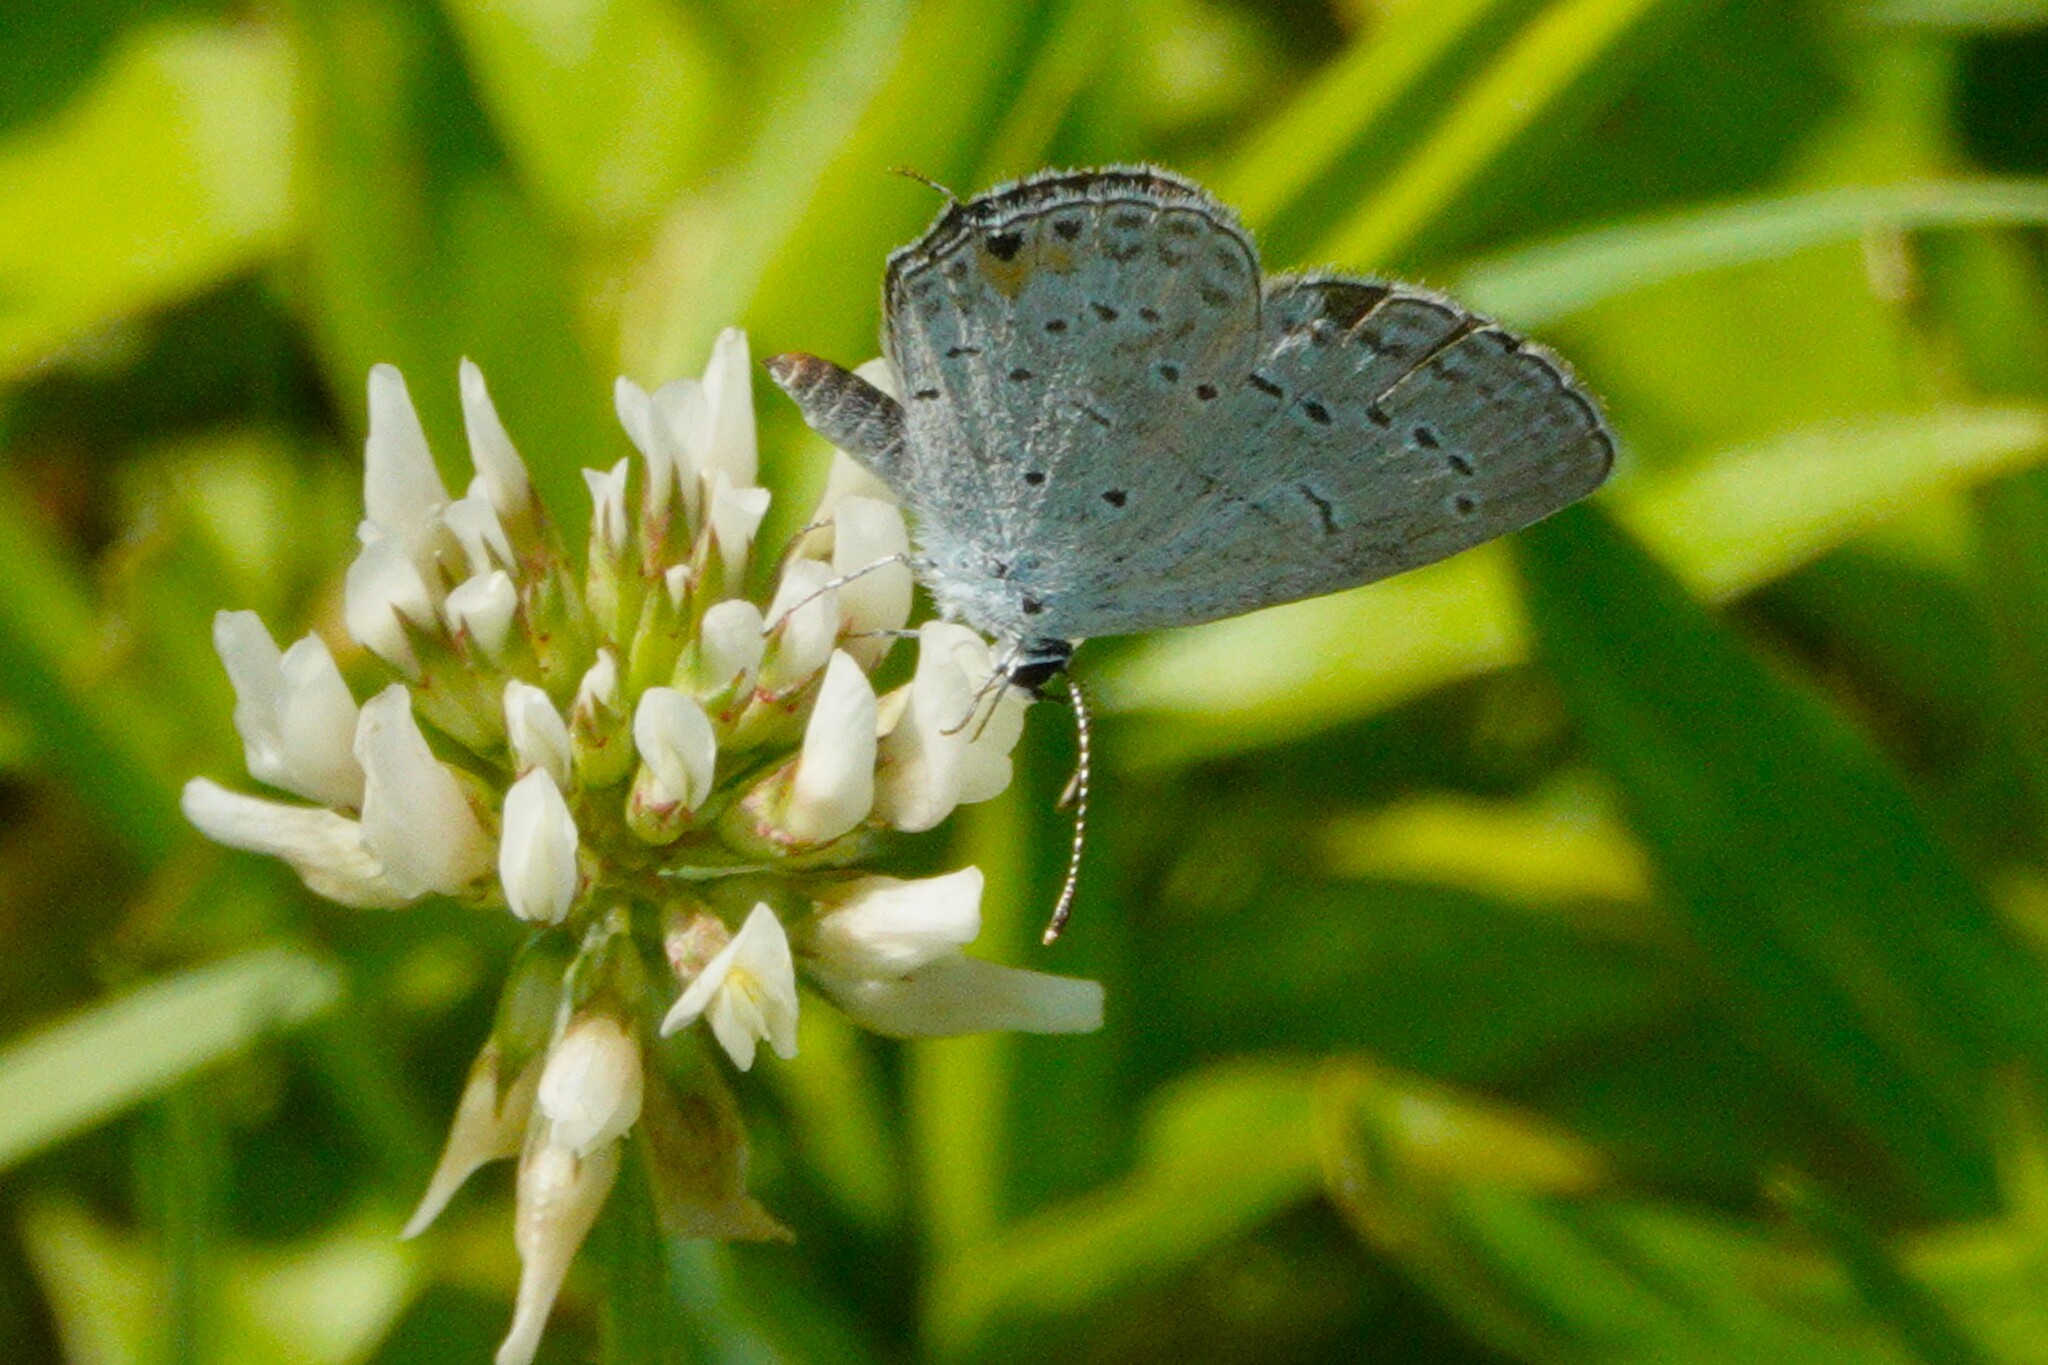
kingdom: Animalia
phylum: Arthropoda
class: Insecta
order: Lepidoptera
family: Lycaenidae
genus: Elkalyce
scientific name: Elkalyce comyntas
